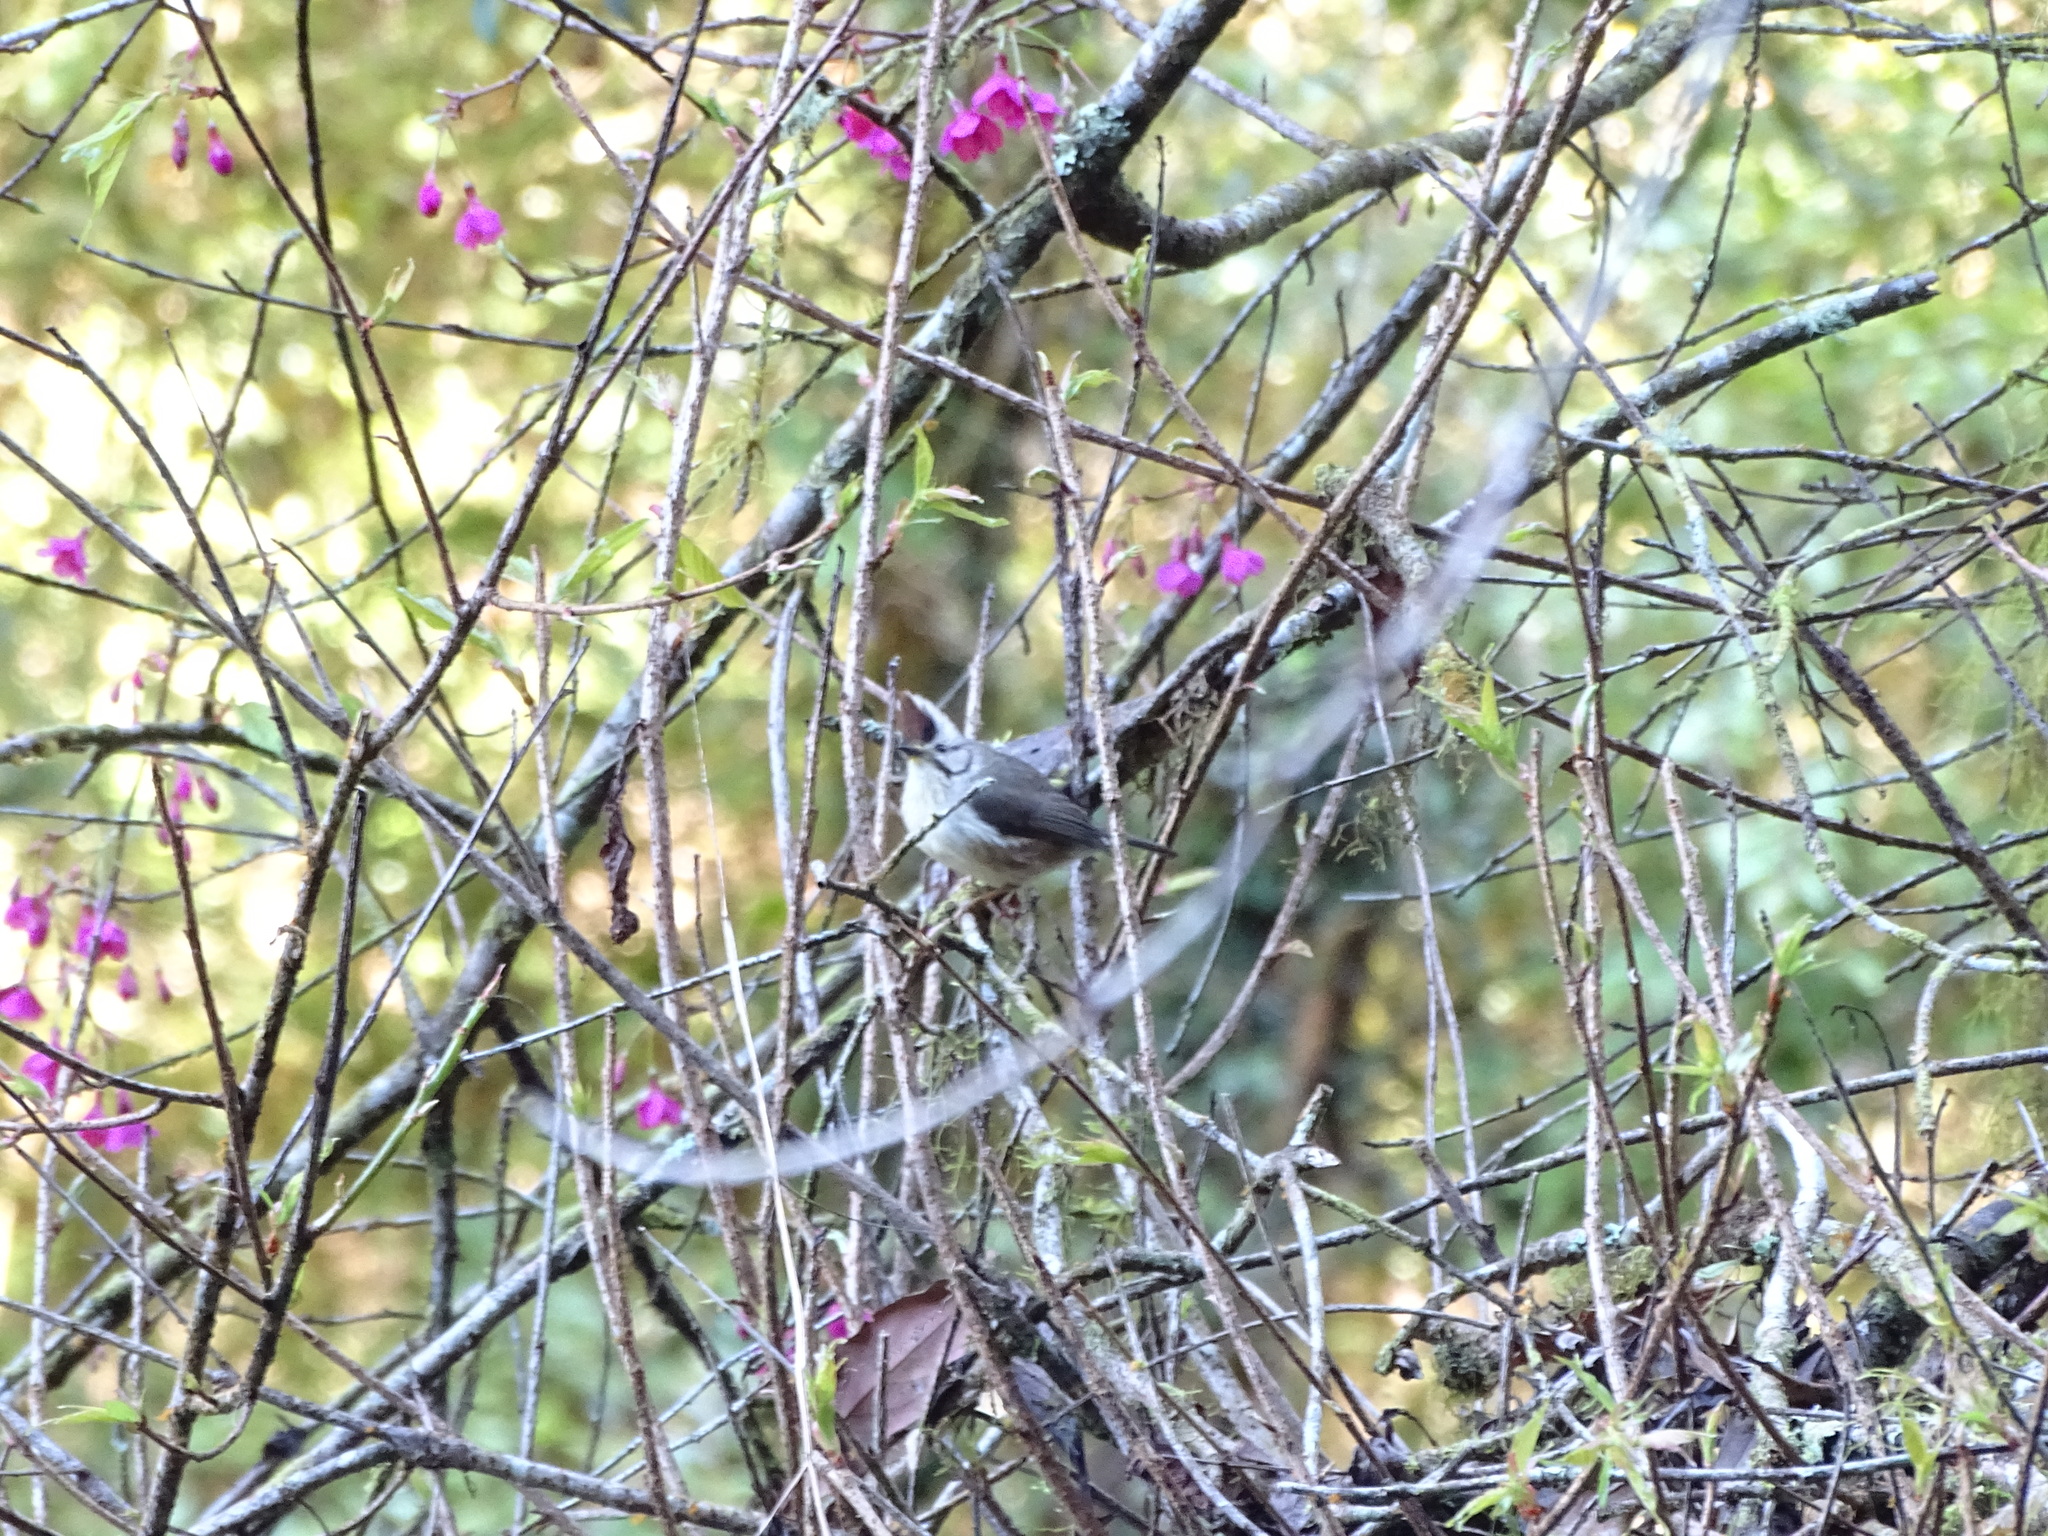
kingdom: Animalia
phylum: Chordata
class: Aves
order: Passeriformes
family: Zosteropidae
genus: Yuhina
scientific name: Yuhina brunneiceps
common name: Taiwan yuhina
